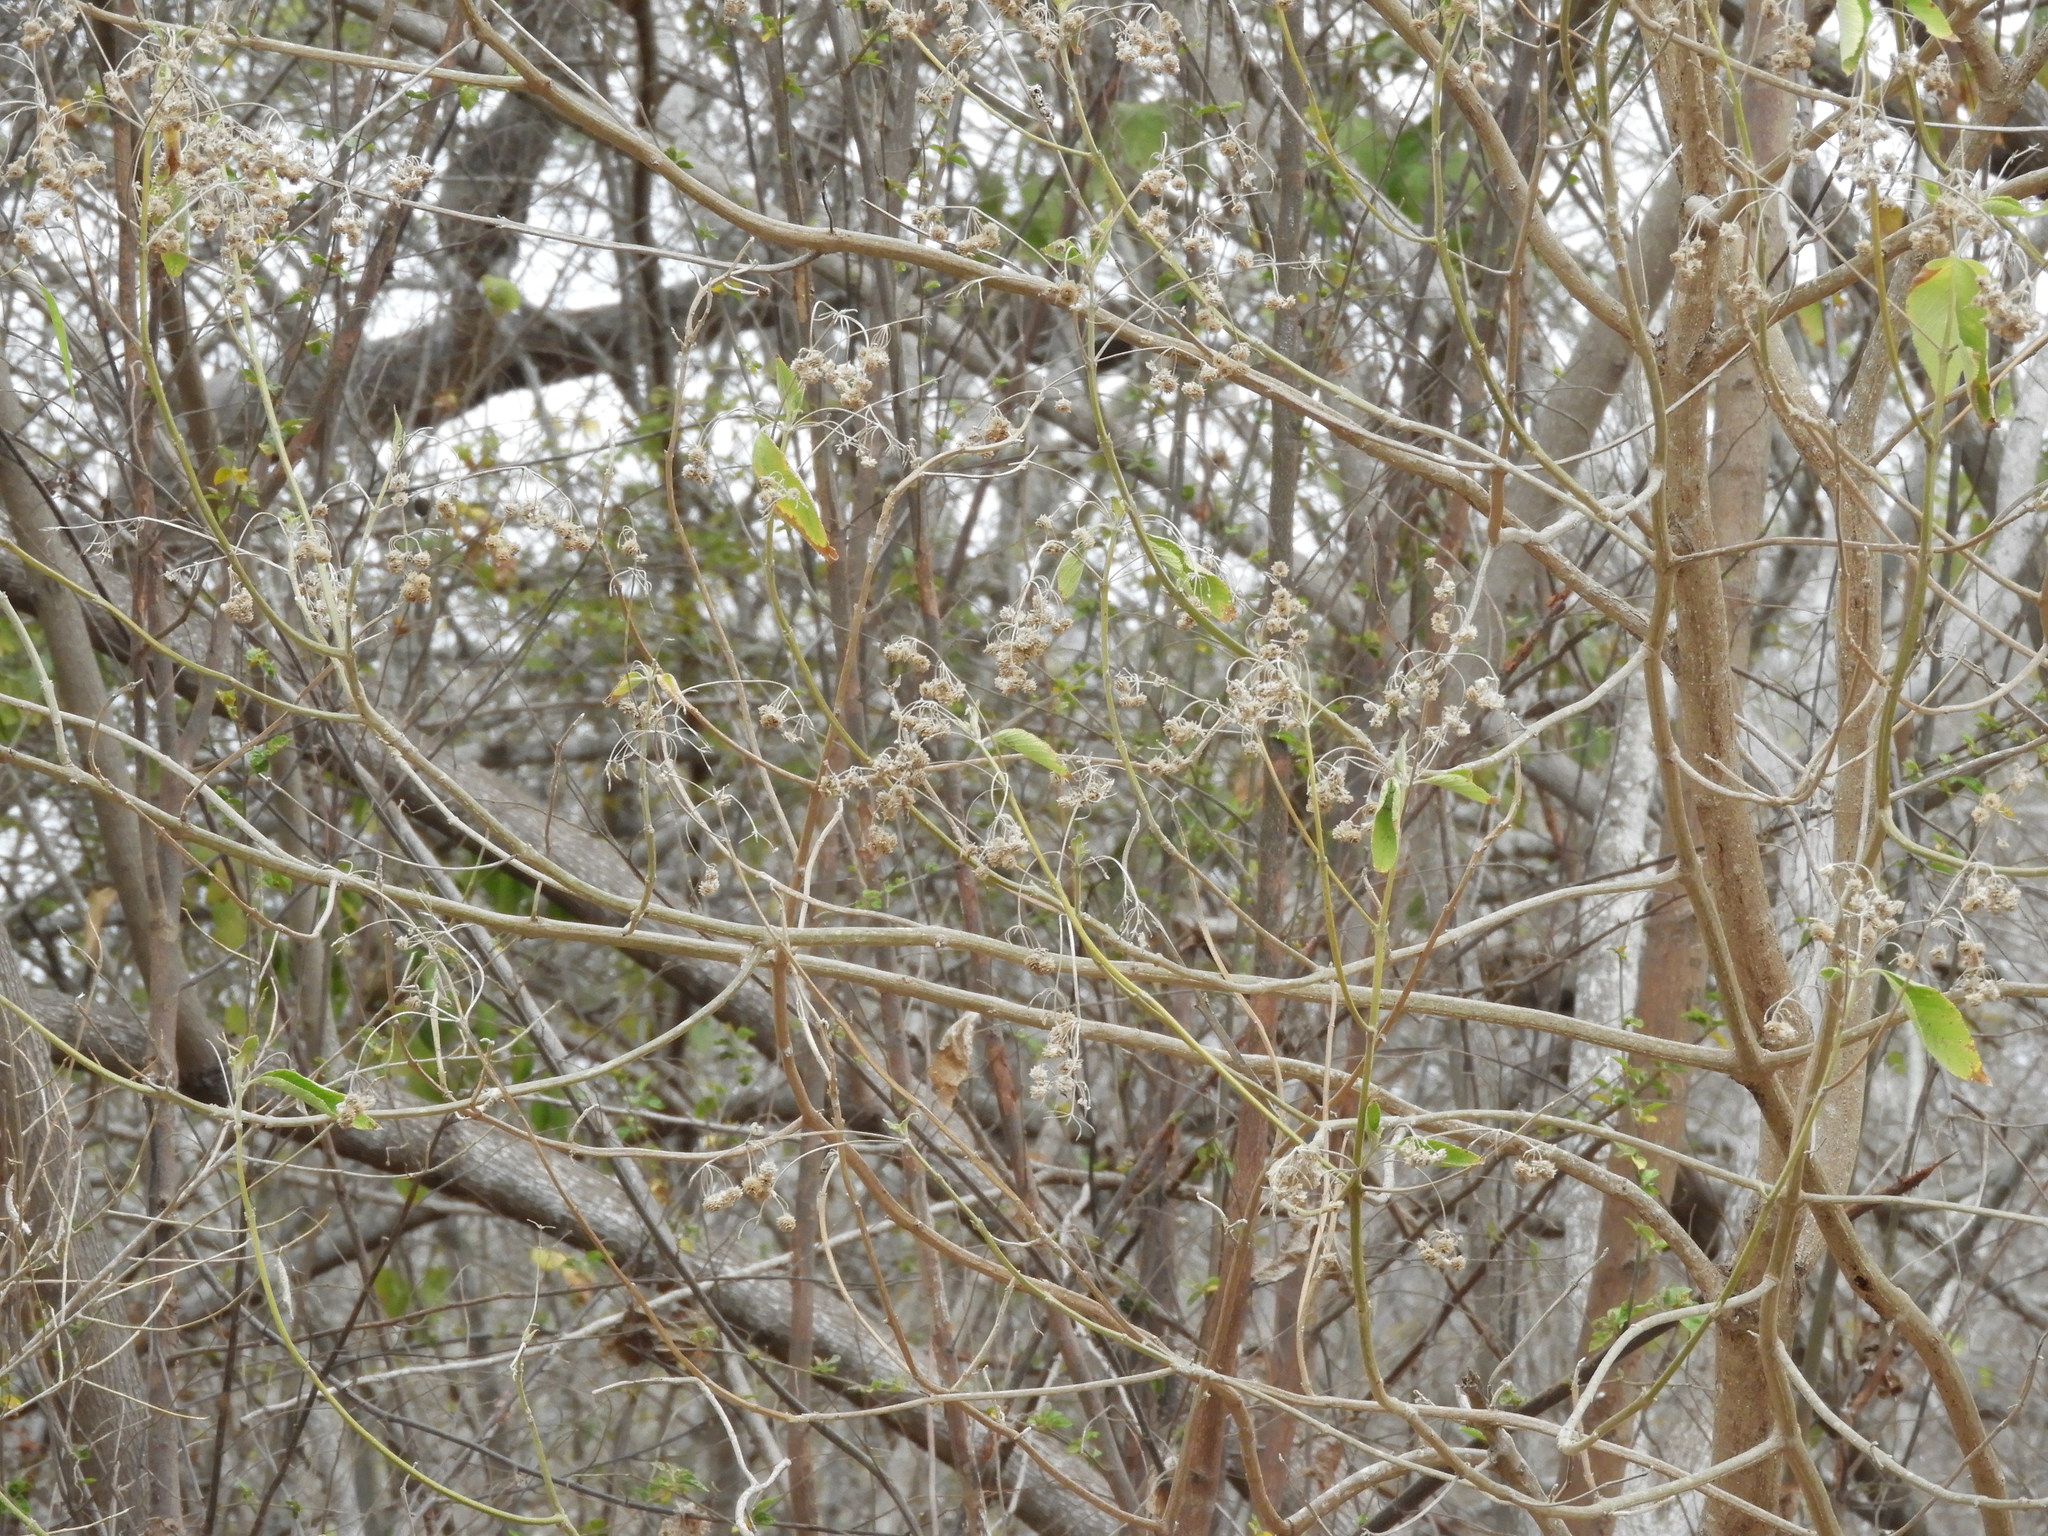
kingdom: Plantae
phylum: Tracheophyta
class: Magnoliopsida
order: Lamiales
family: Verbenaceae
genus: Lippia
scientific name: Lippia umbellata
